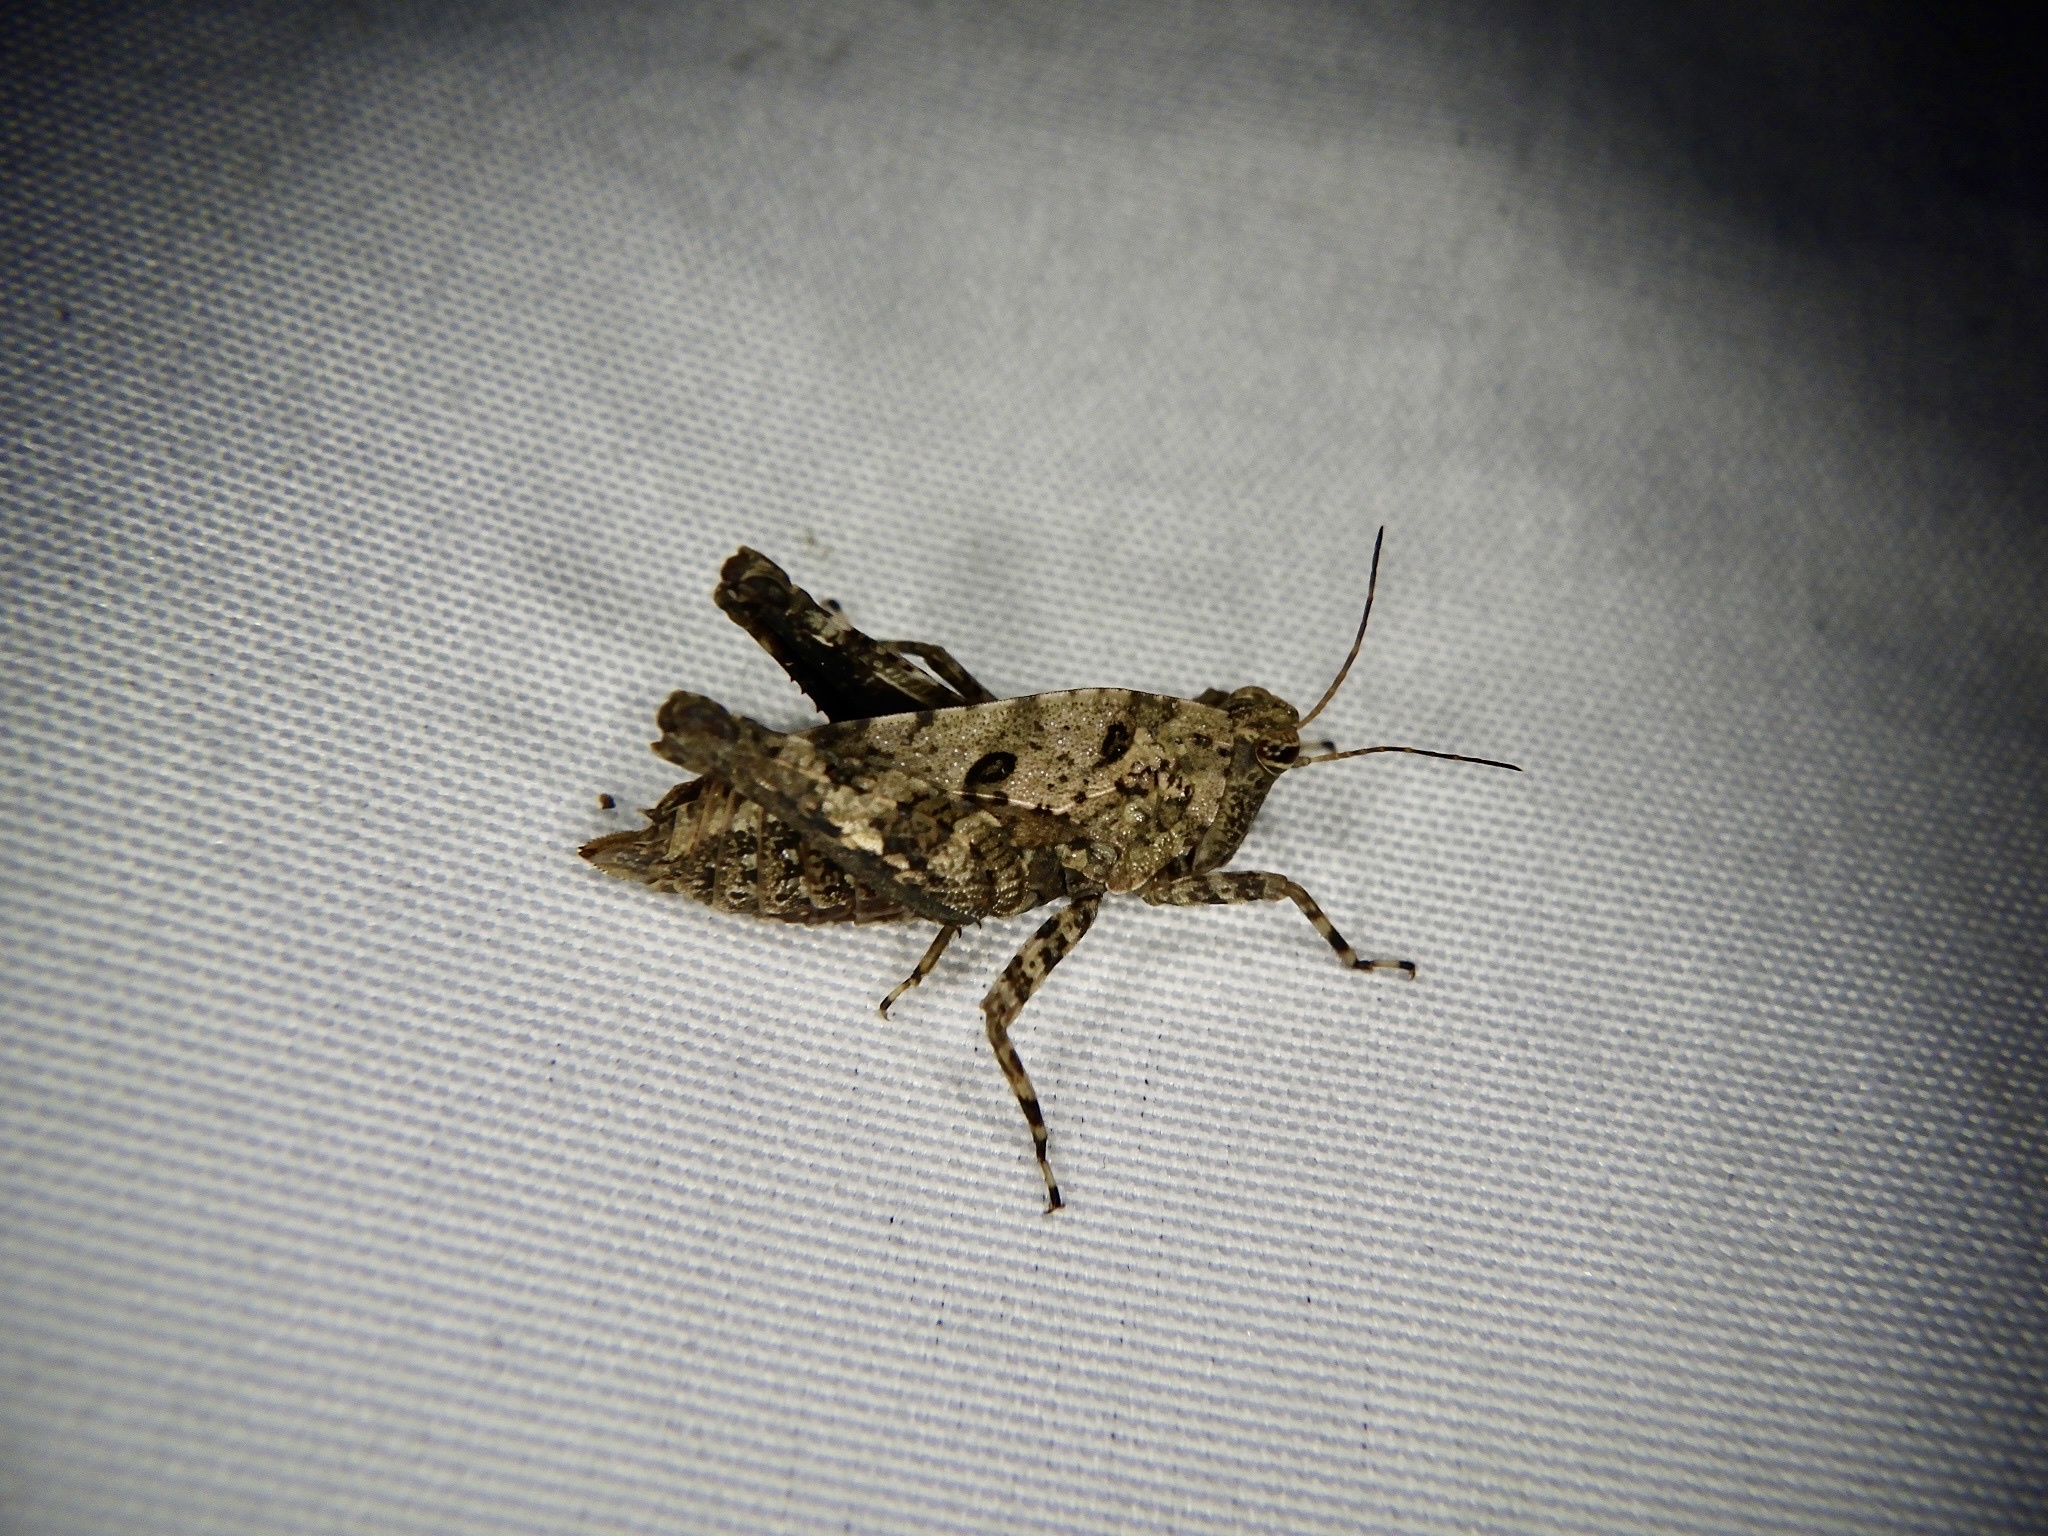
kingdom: Animalia
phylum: Arthropoda
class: Insecta
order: Orthoptera
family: Tetrigidae
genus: Formosatettix
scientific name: Formosatettix larvatus
